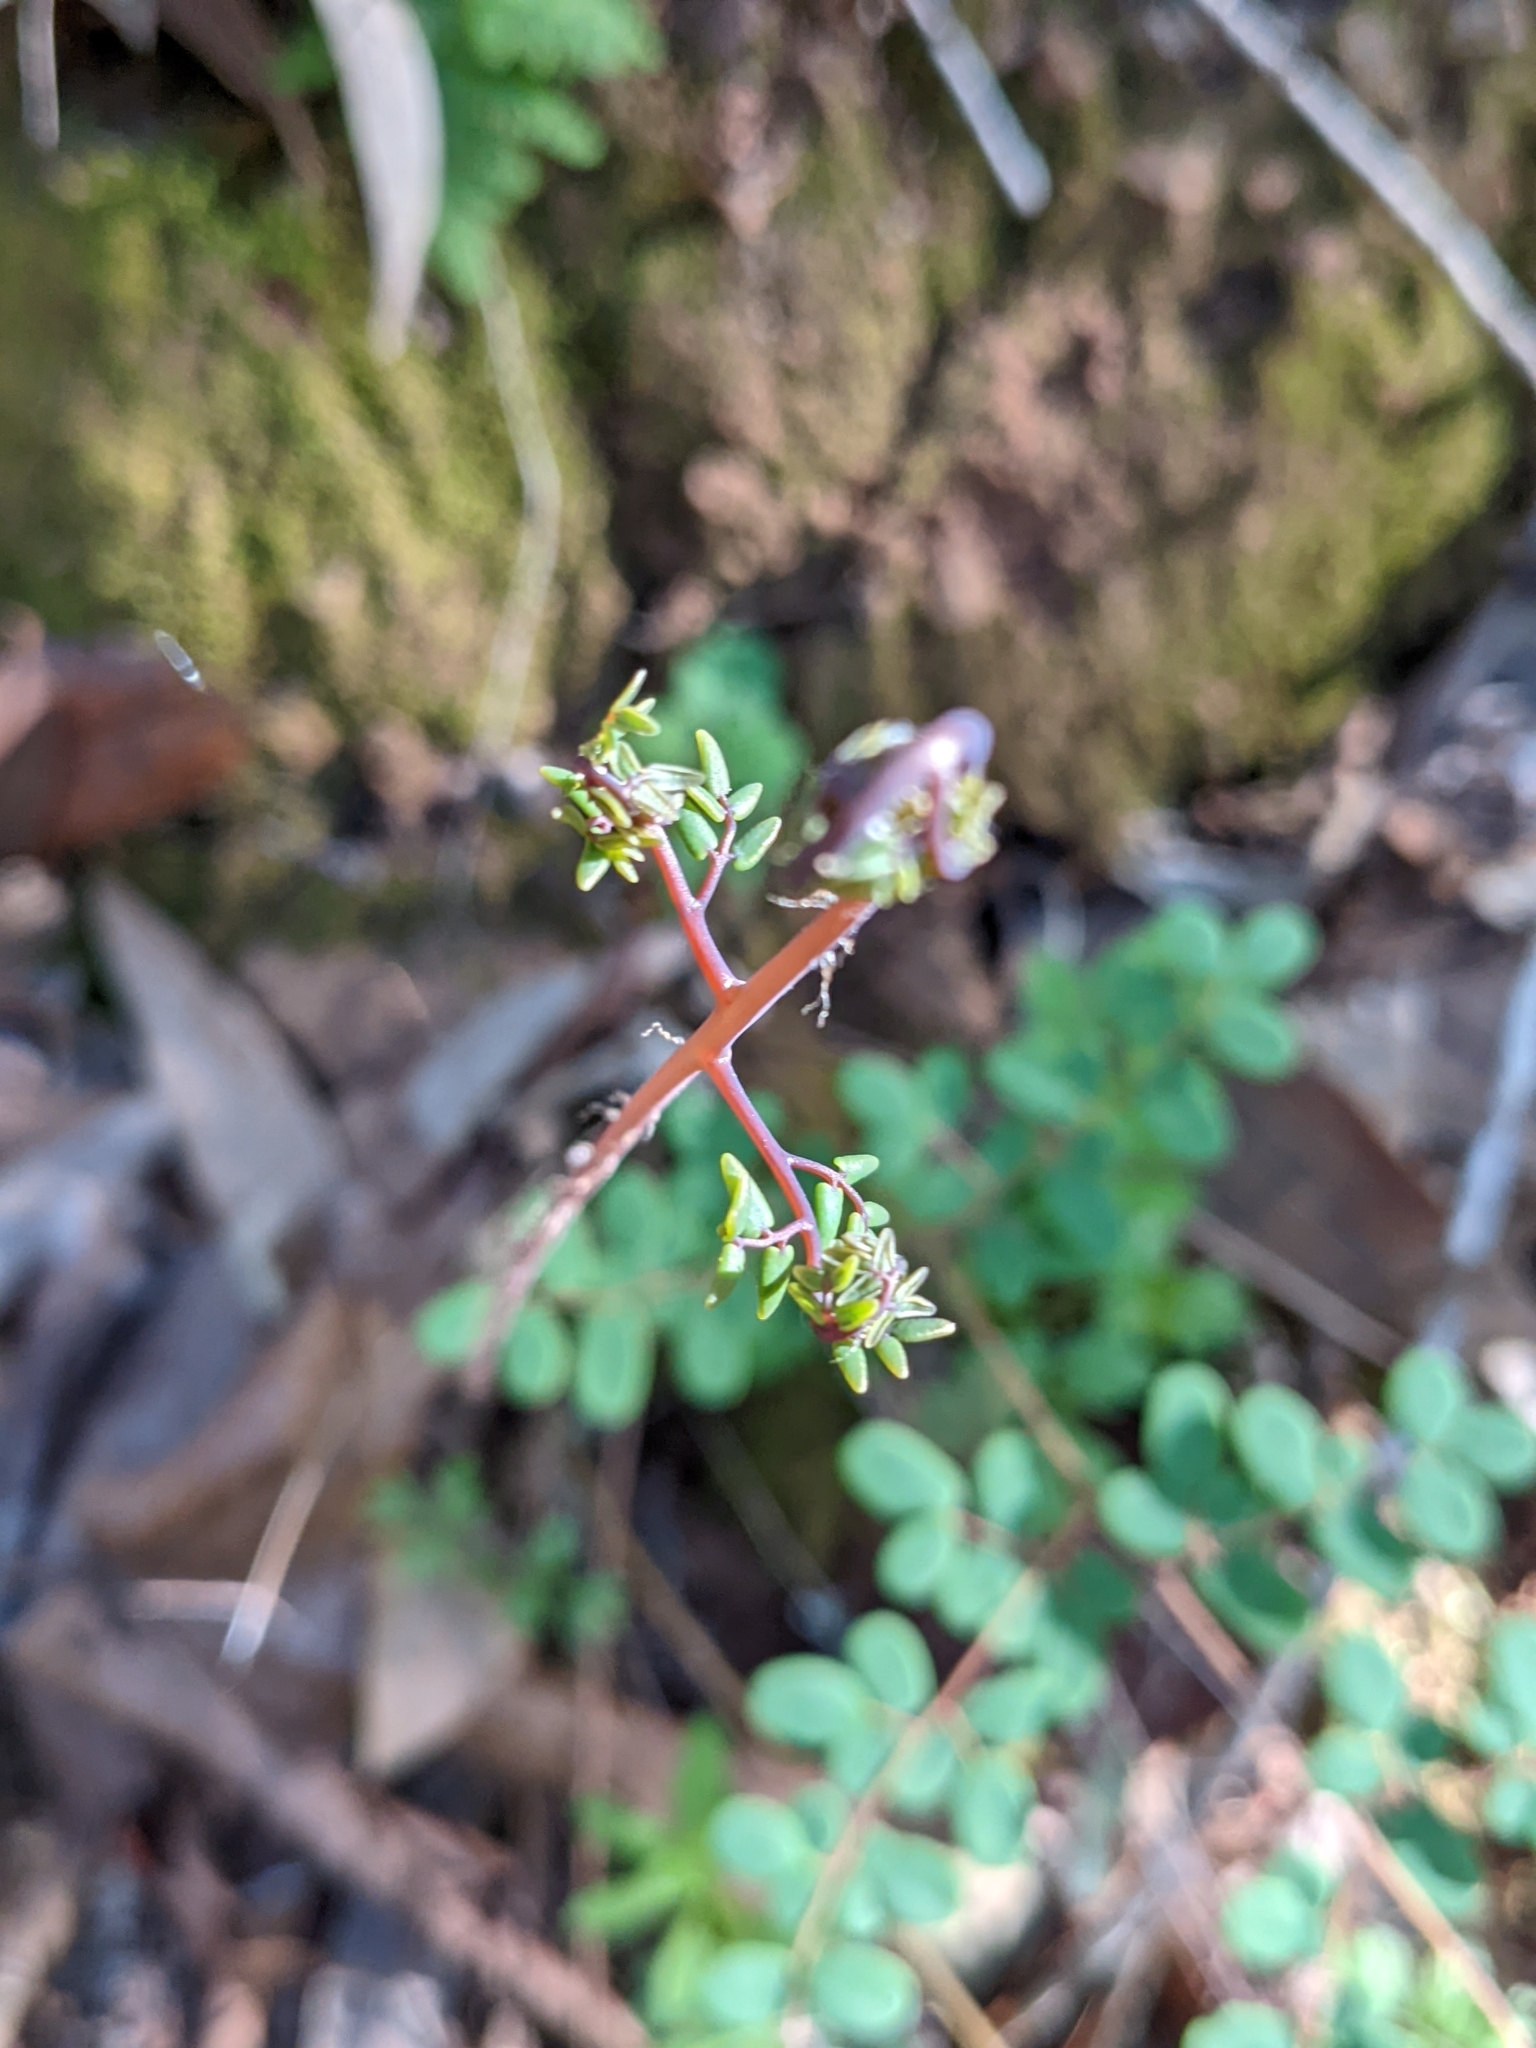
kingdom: Plantae
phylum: Tracheophyta
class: Polypodiopsida
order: Polypodiales
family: Pteridaceae
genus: Pellaea
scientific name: Pellaea andromedifolia
